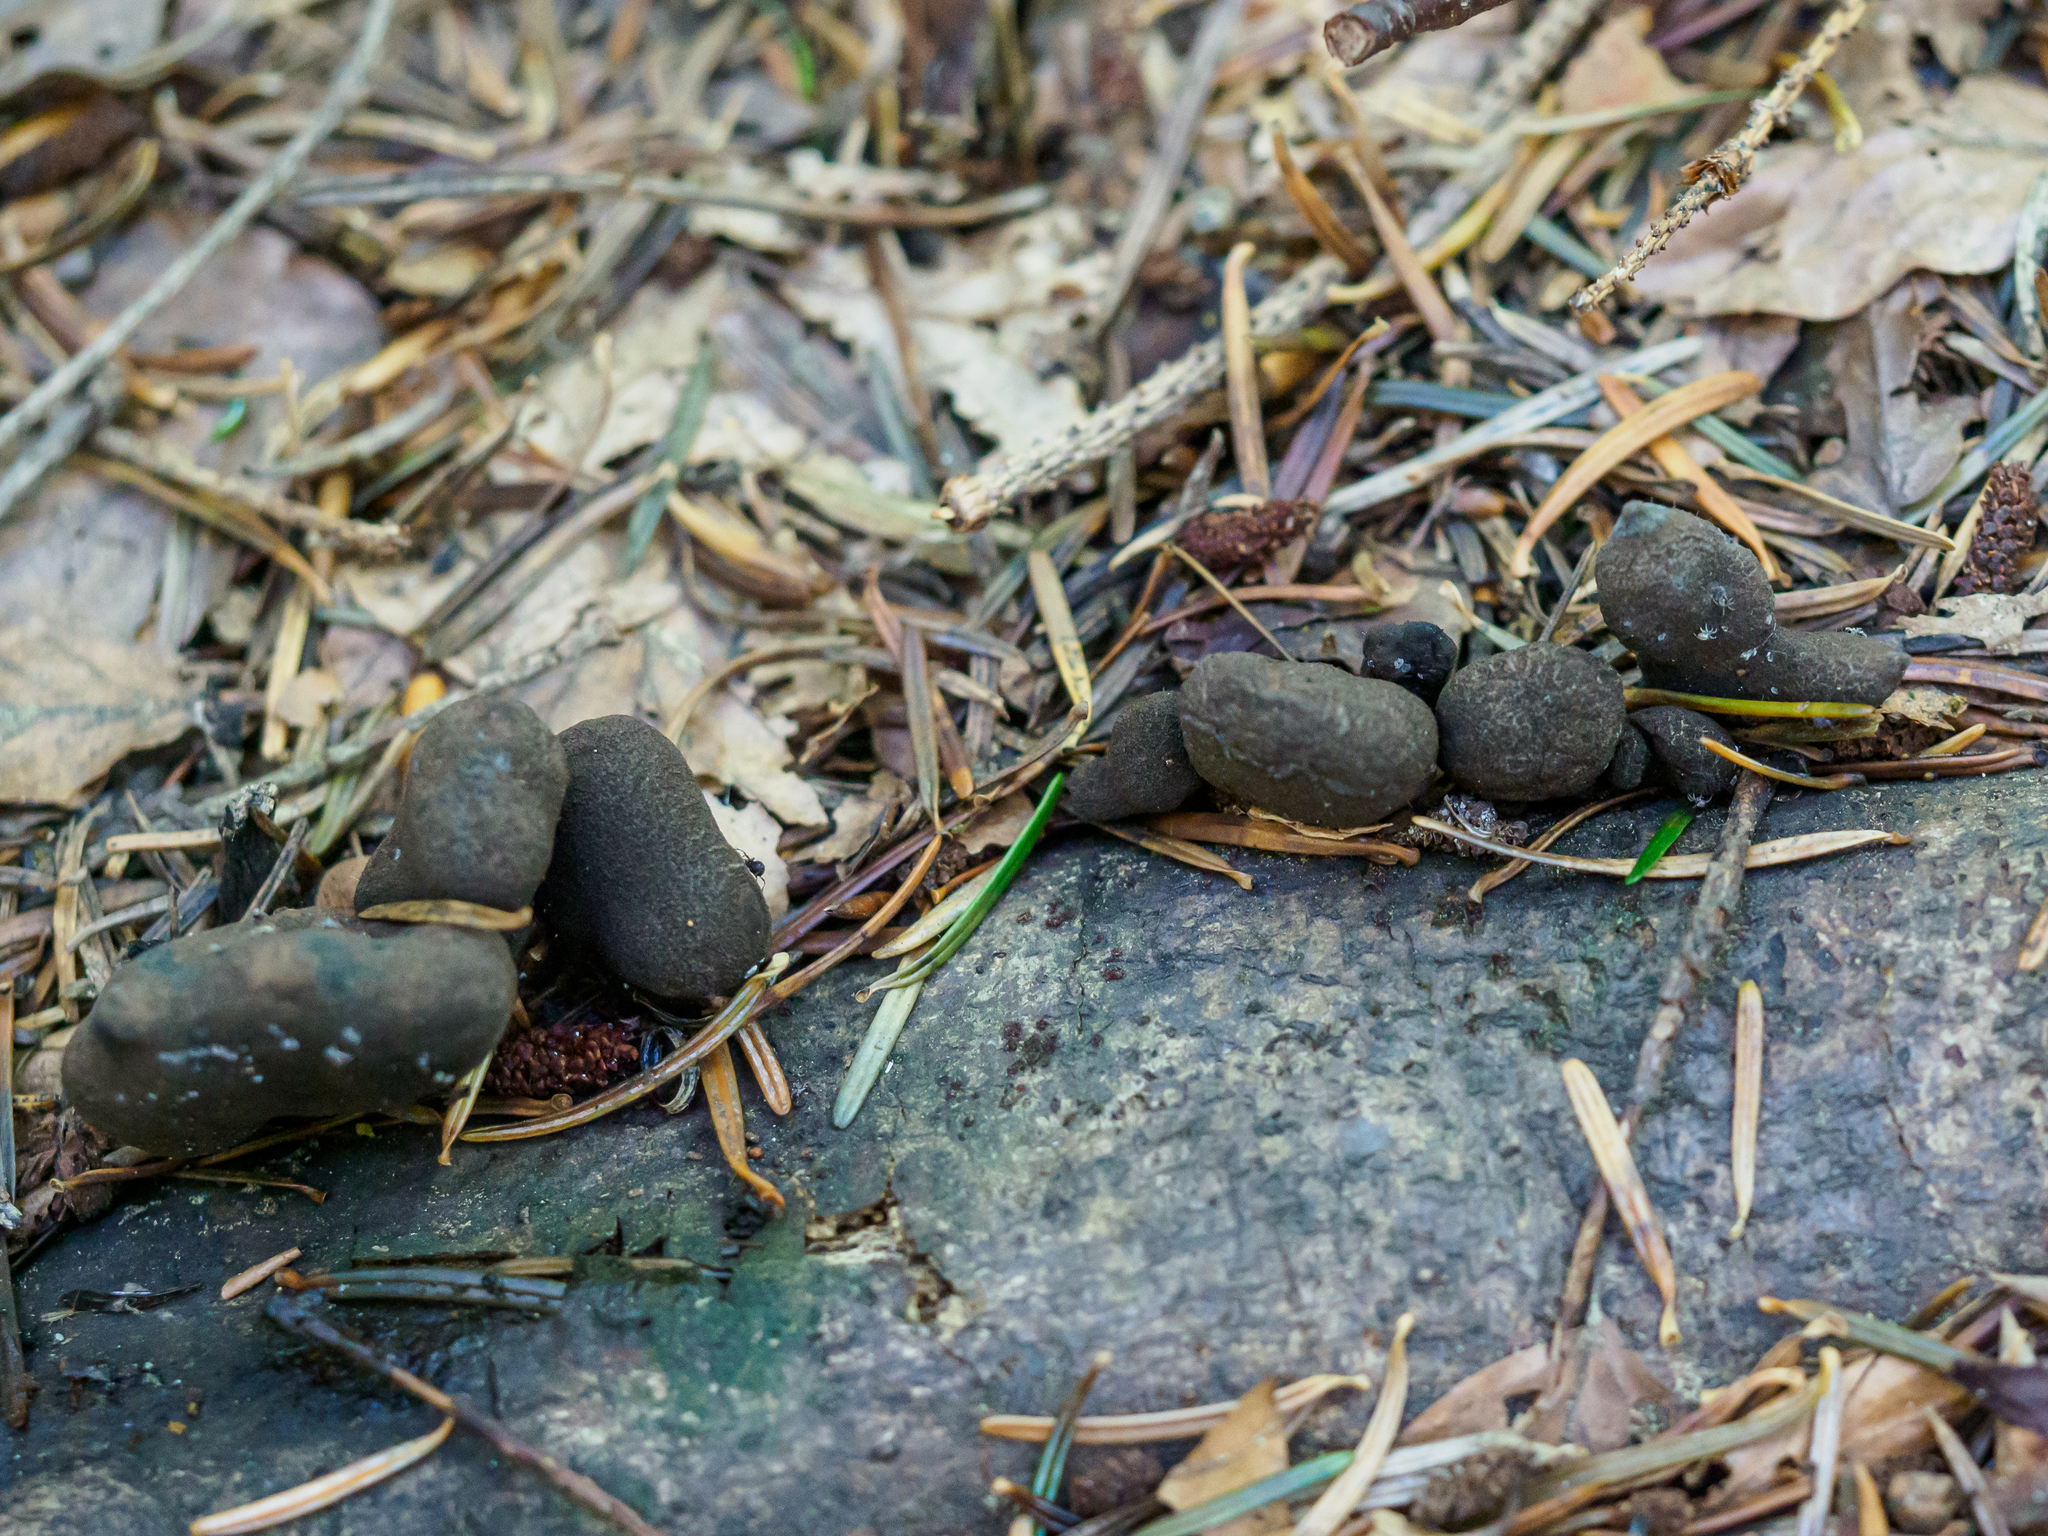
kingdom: Fungi
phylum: Ascomycota
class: Sordariomycetes
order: Xylariales
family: Xylariaceae
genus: Xylaria
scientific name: Xylaria polymorpha
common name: Dead man's fingers
